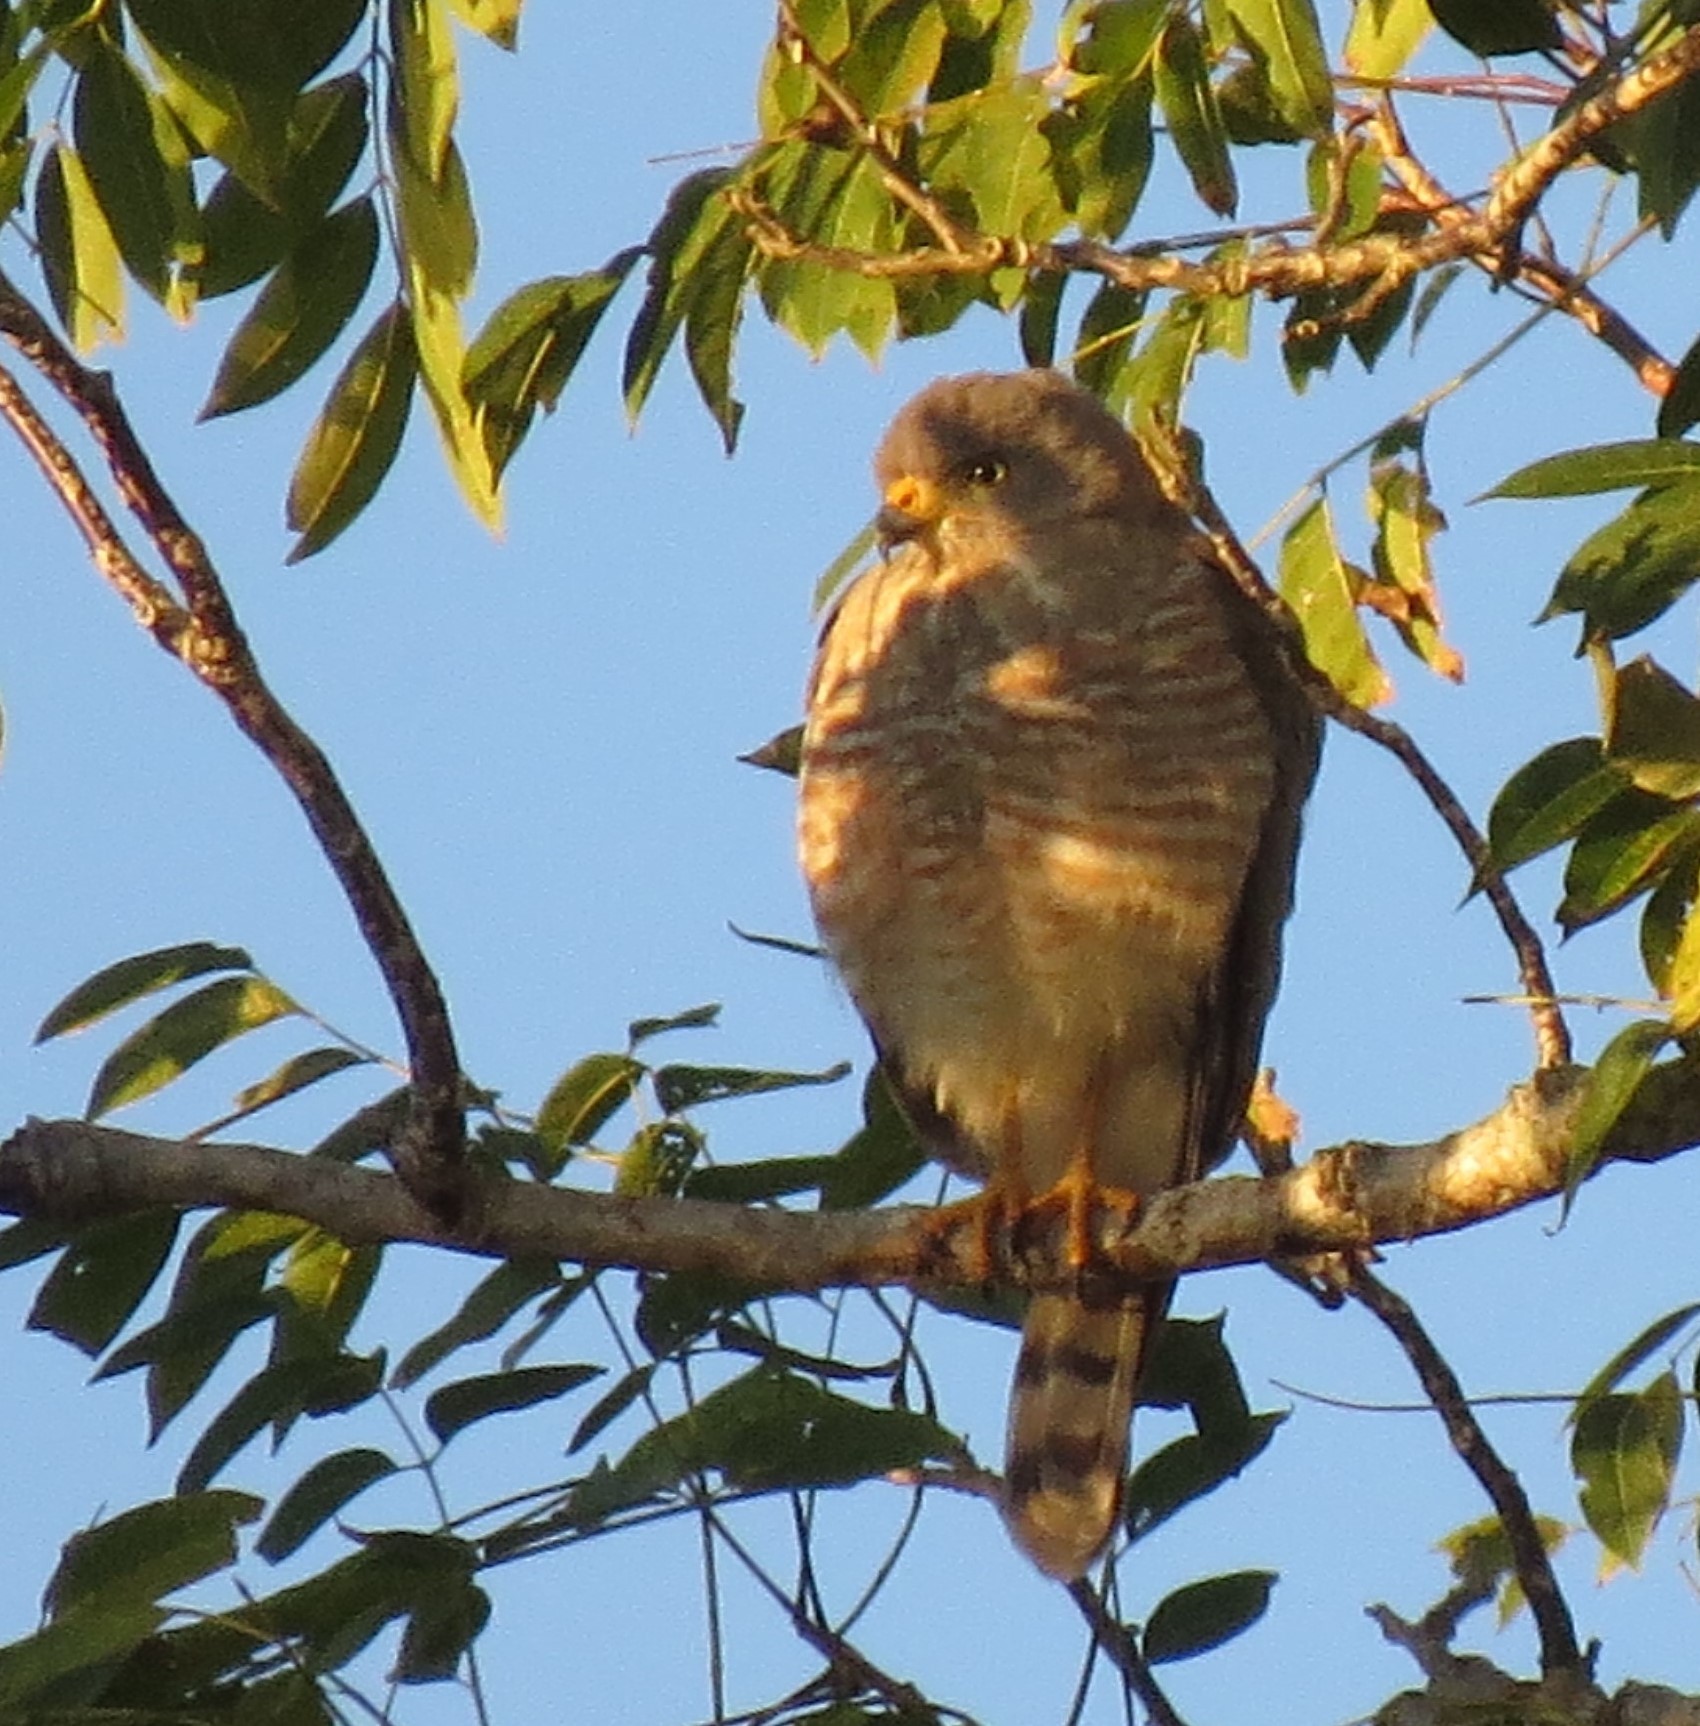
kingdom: Animalia
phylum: Chordata
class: Aves
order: Accipitriformes
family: Accipitridae
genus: Rupornis
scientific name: Rupornis magnirostris
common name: Roadside hawk
